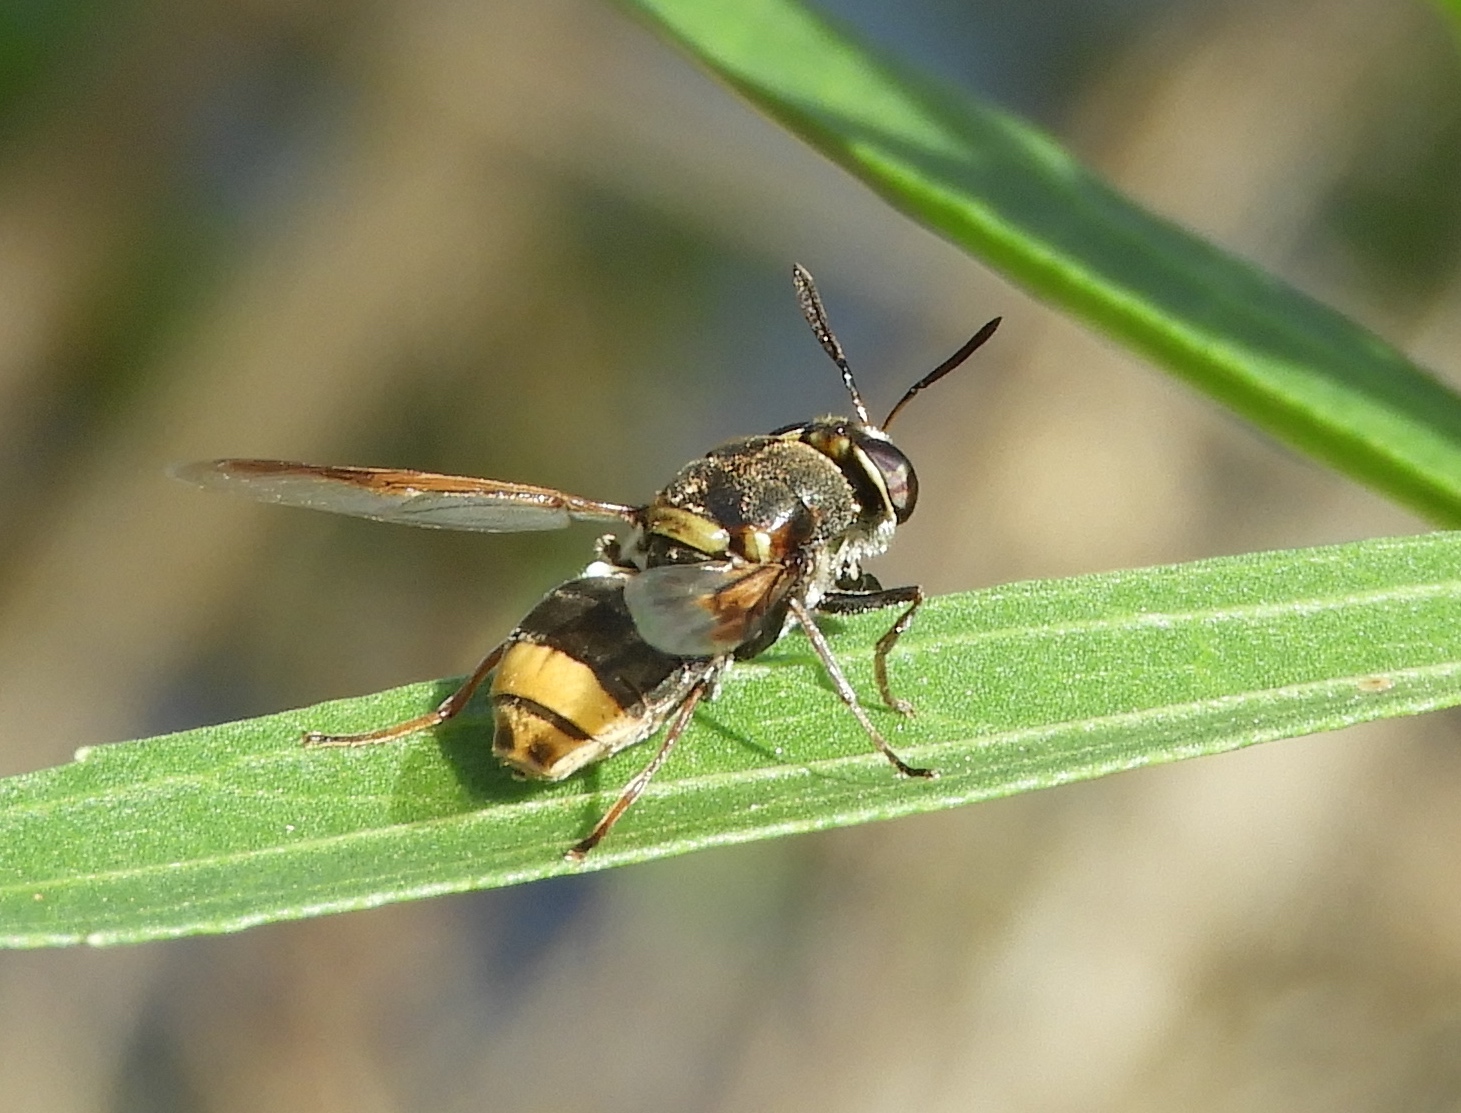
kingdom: Animalia
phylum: Arthropoda
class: Insecta
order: Diptera
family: Stratiomyidae
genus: Hoplitimyia
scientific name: Hoplitimyia mutabilis
